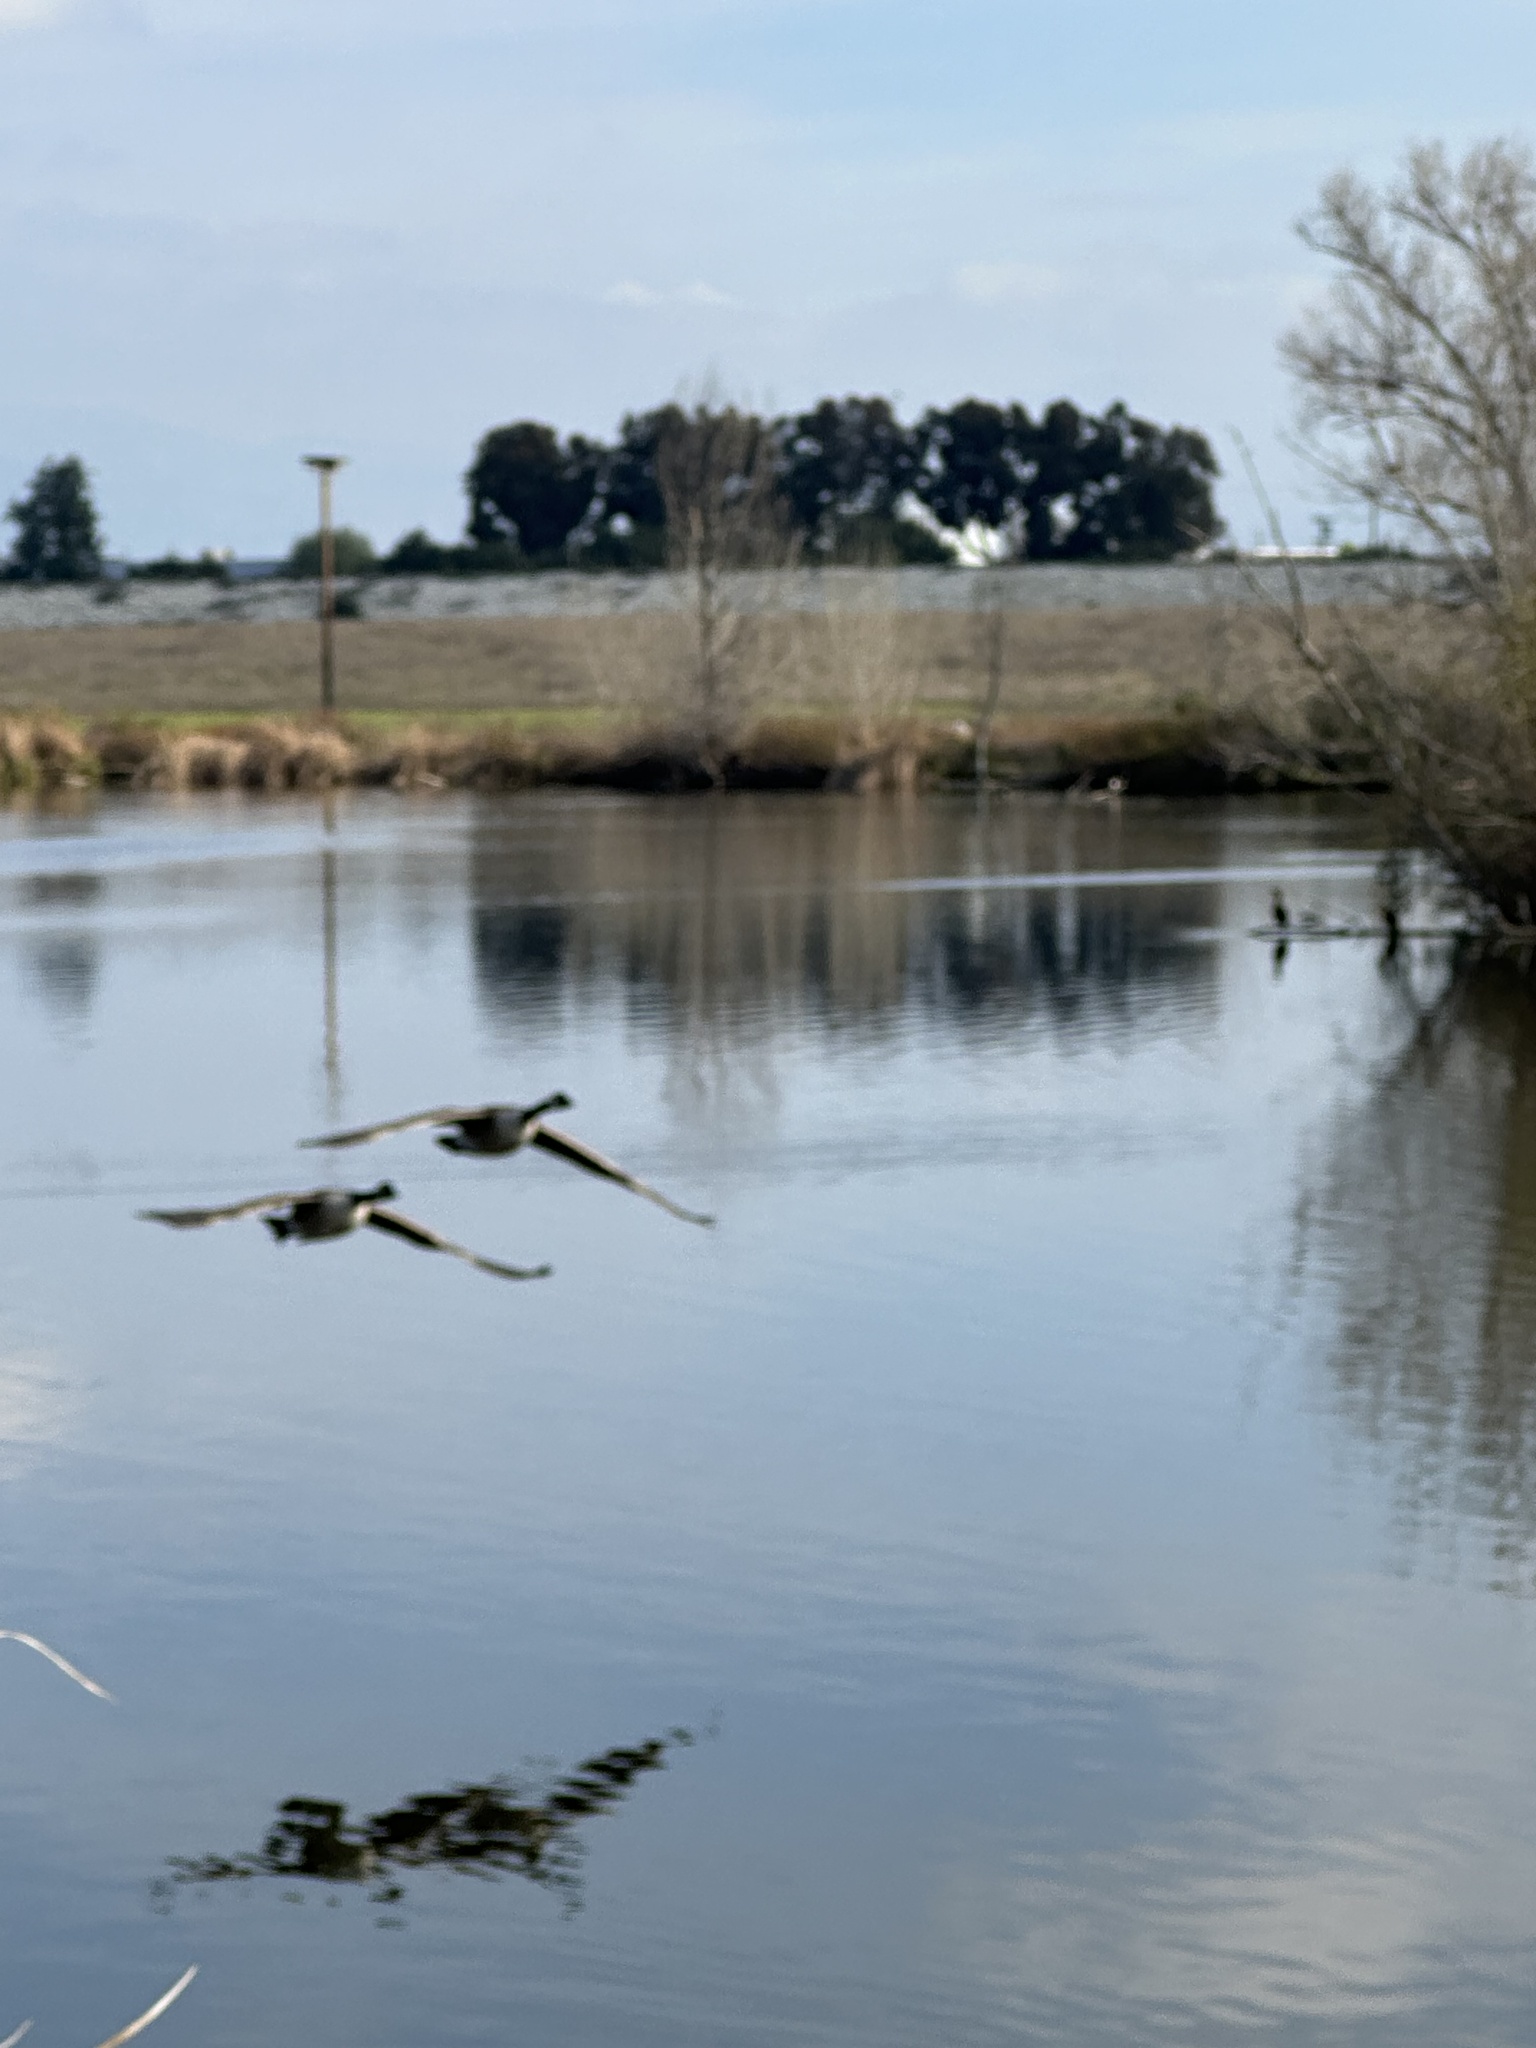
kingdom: Animalia
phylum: Chordata
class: Aves
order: Anseriformes
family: Anatidae
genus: Branta
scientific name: Branta canadensis
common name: Canada goose
